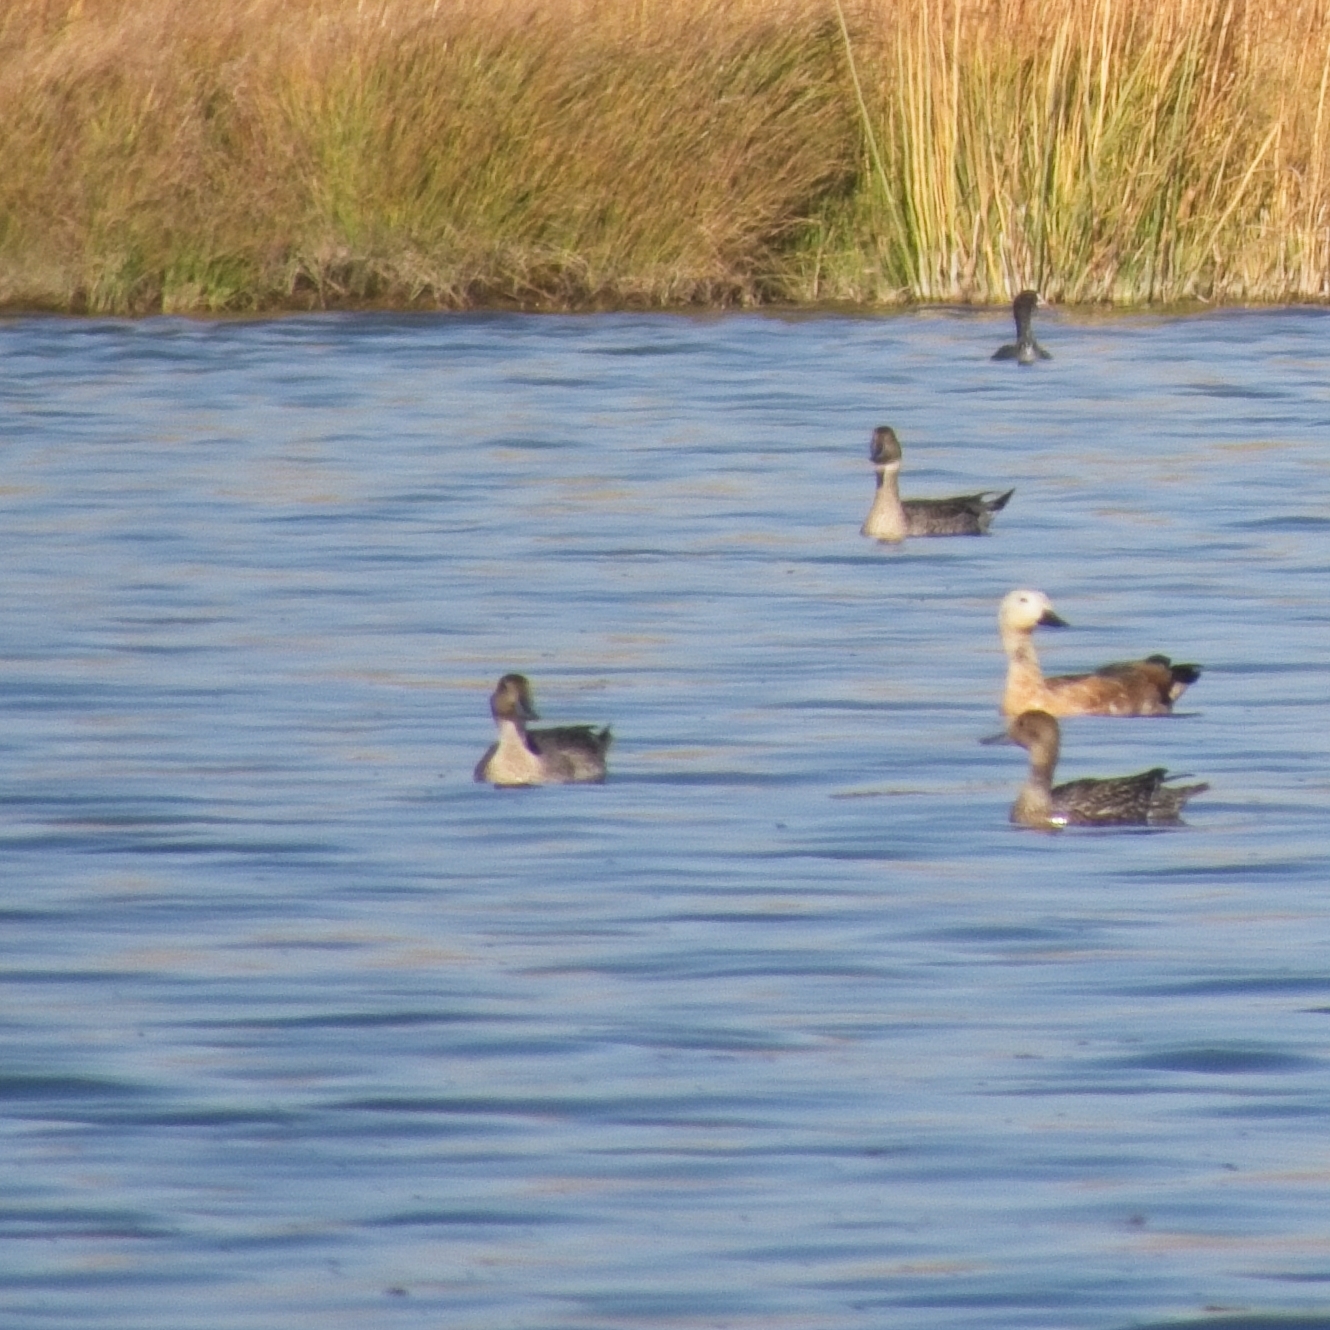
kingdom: Animalia
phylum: Chordata
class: Aves
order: Anseriformes
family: Anatidae
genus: Anas
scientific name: Anas acuta
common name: Northern pintail
